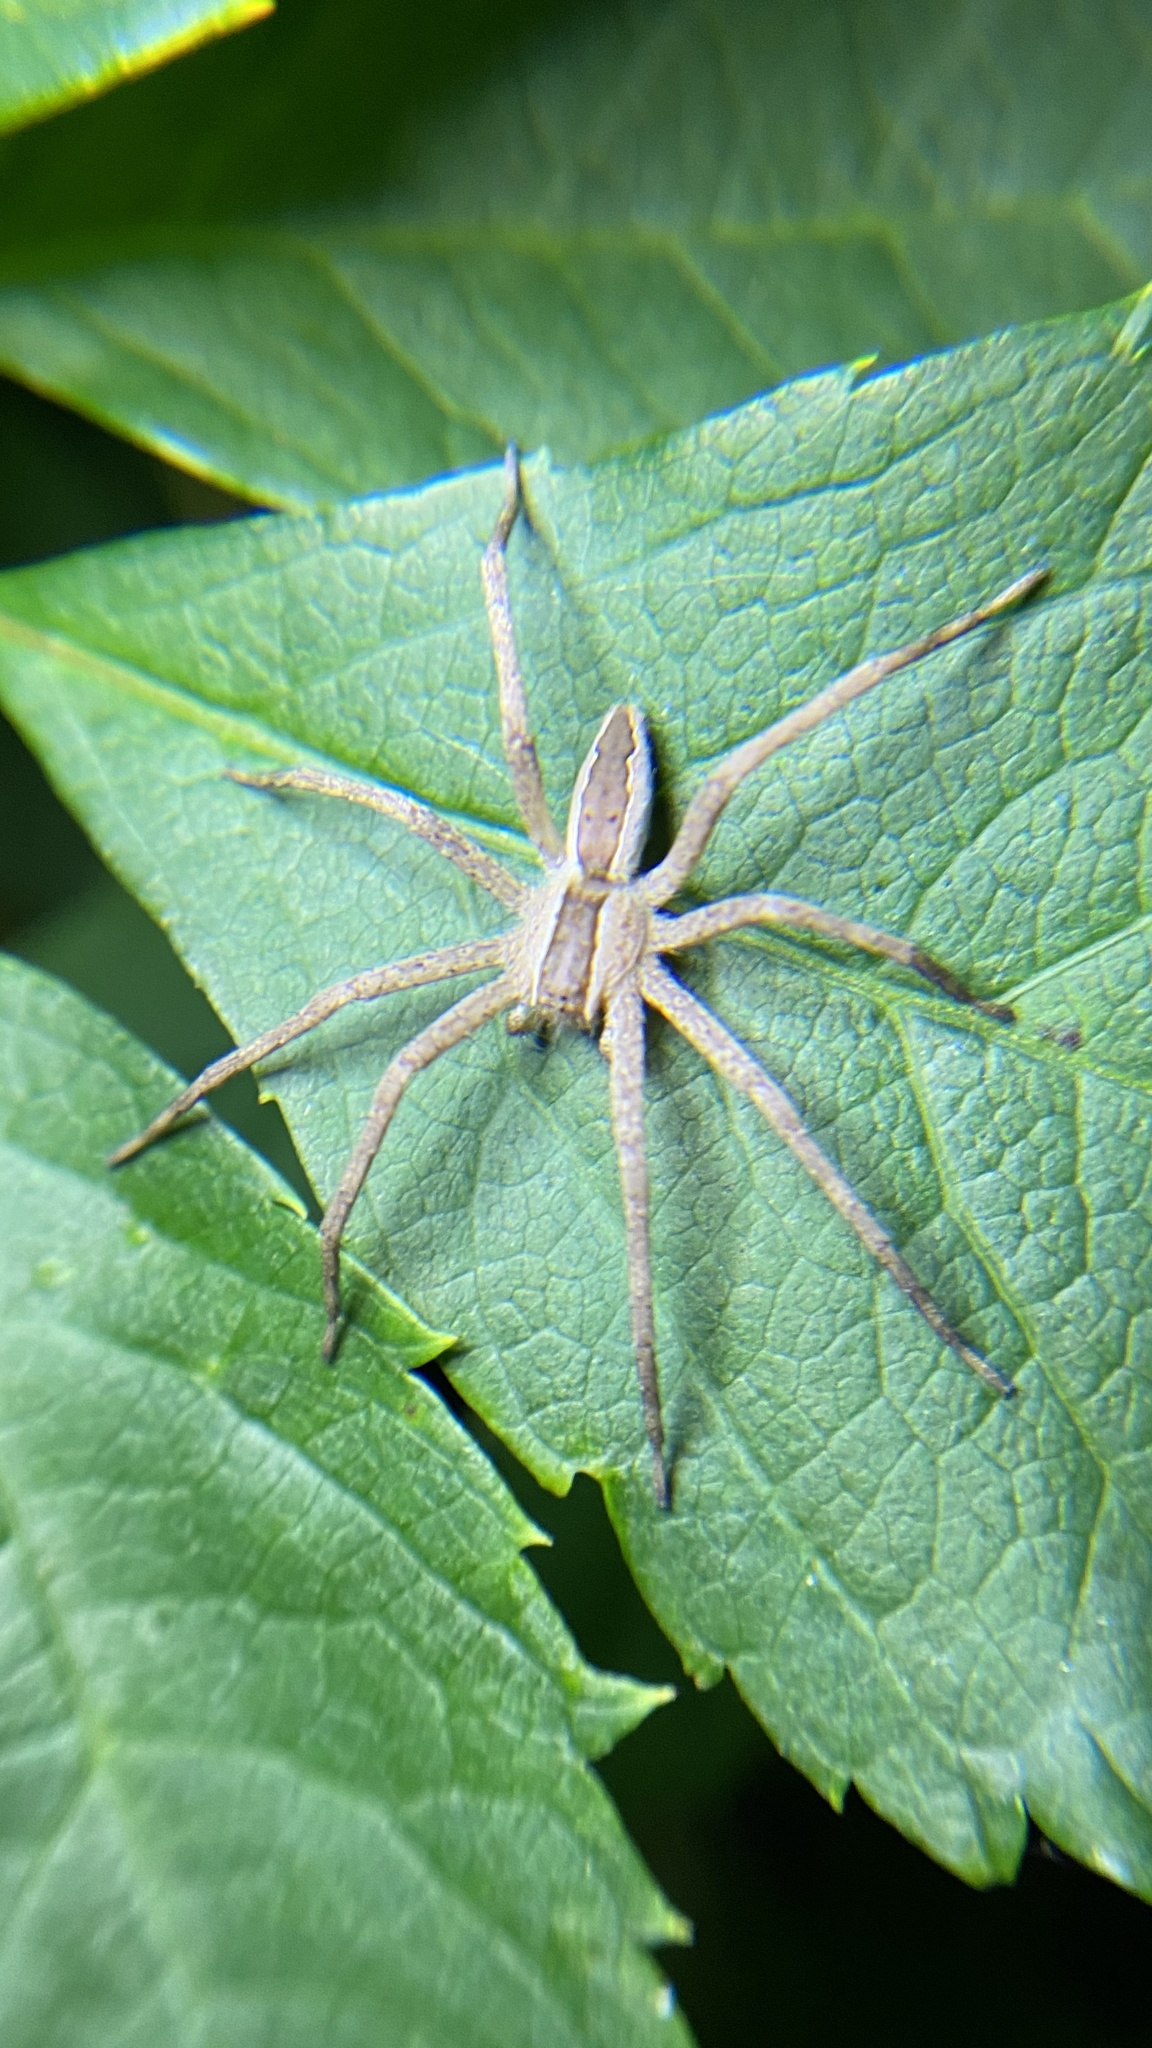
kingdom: Animalia
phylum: Arthropoda
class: Arachnida
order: Araneae
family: Pisauridae
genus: Pisaurina
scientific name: Pisaurina mira
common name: American nursery web spider
